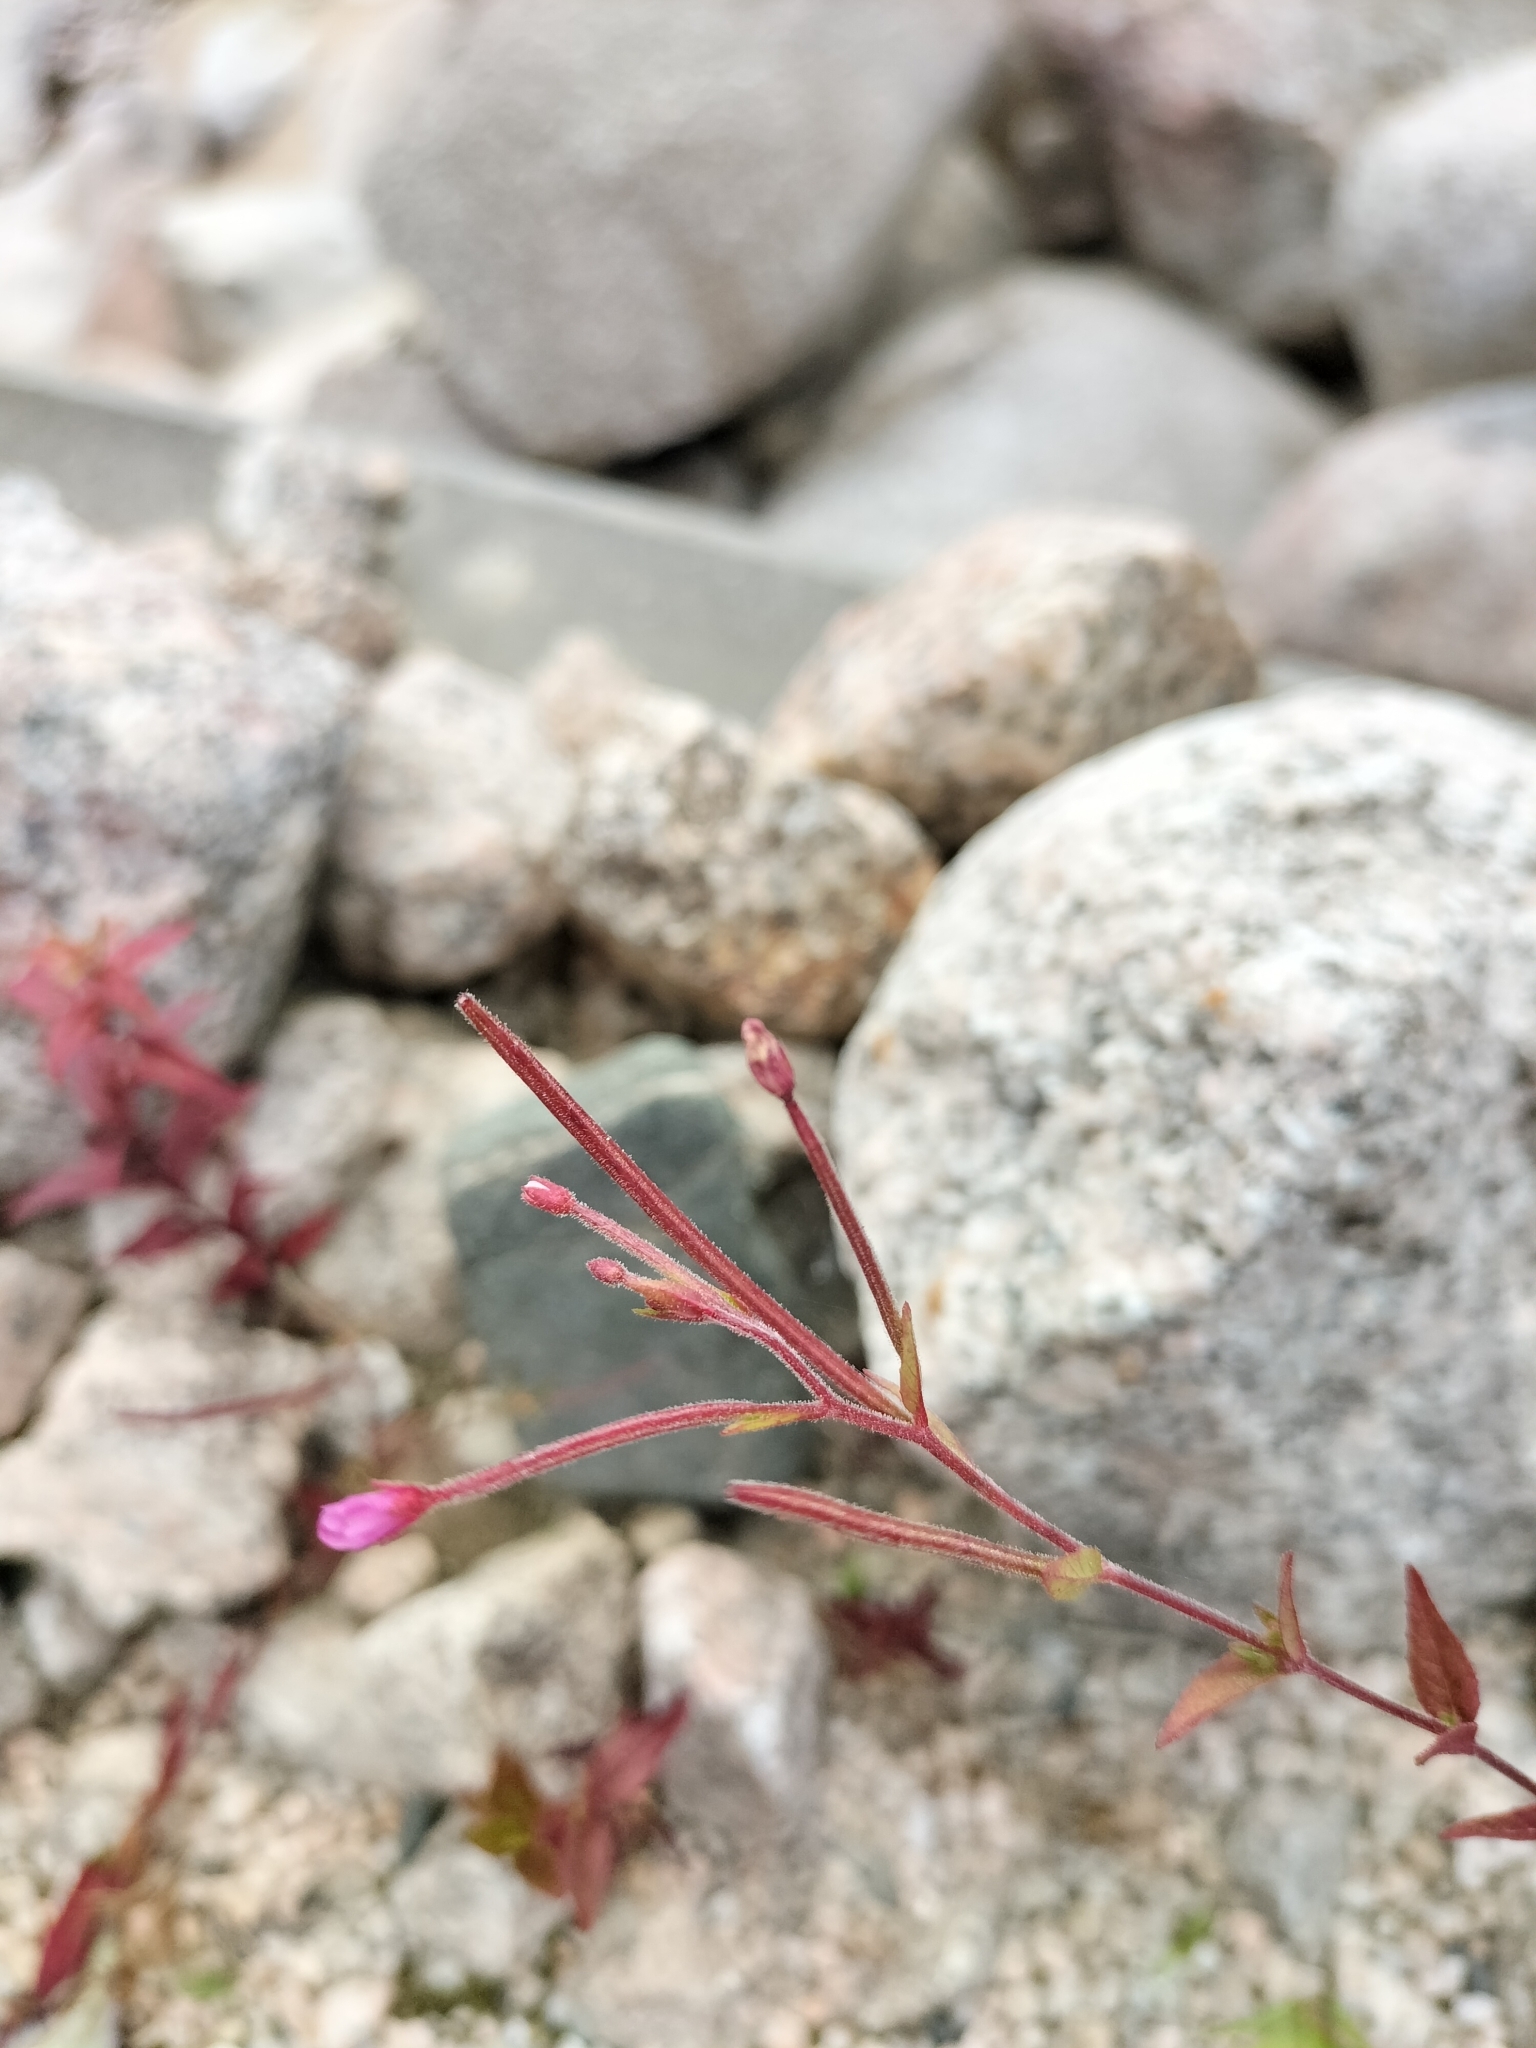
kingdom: Plantae
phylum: Tracheophyta
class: Magnoliopsida
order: Myrtales
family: Onagraceae
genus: Epilobium
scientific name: Epilobium ciliatum
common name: American willowherb
